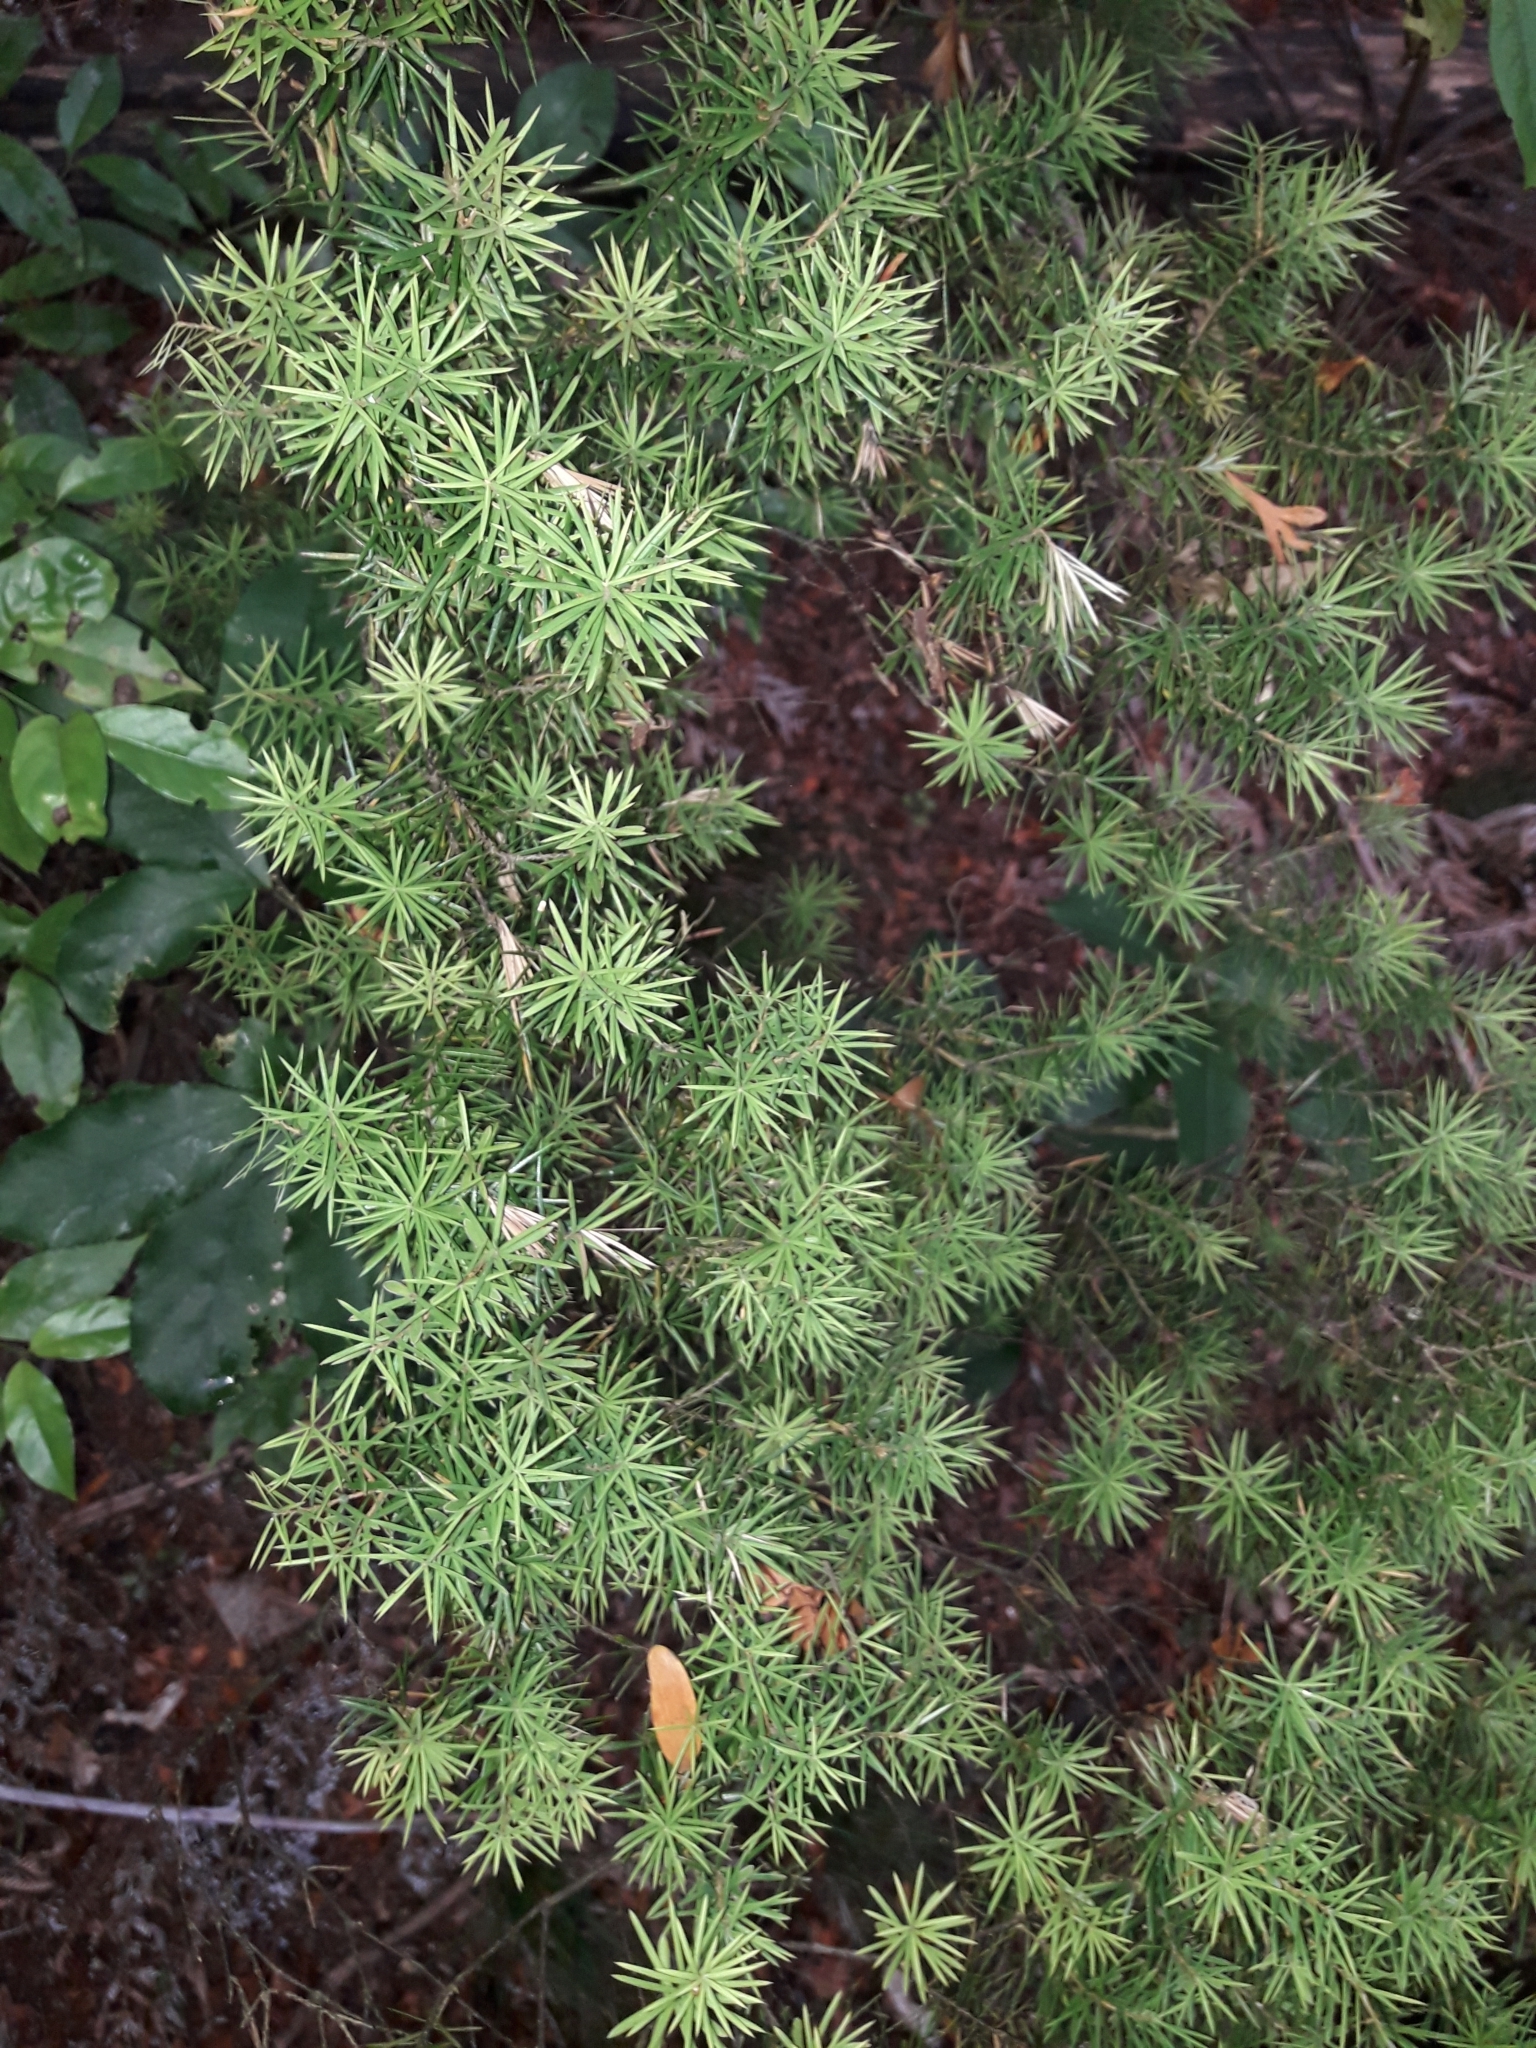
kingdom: Plantae
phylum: Tracheophyta
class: Magnoliopsida
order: Ericales
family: Ericaceae
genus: Leptecophylla
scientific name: Leptecophylla juniperina
